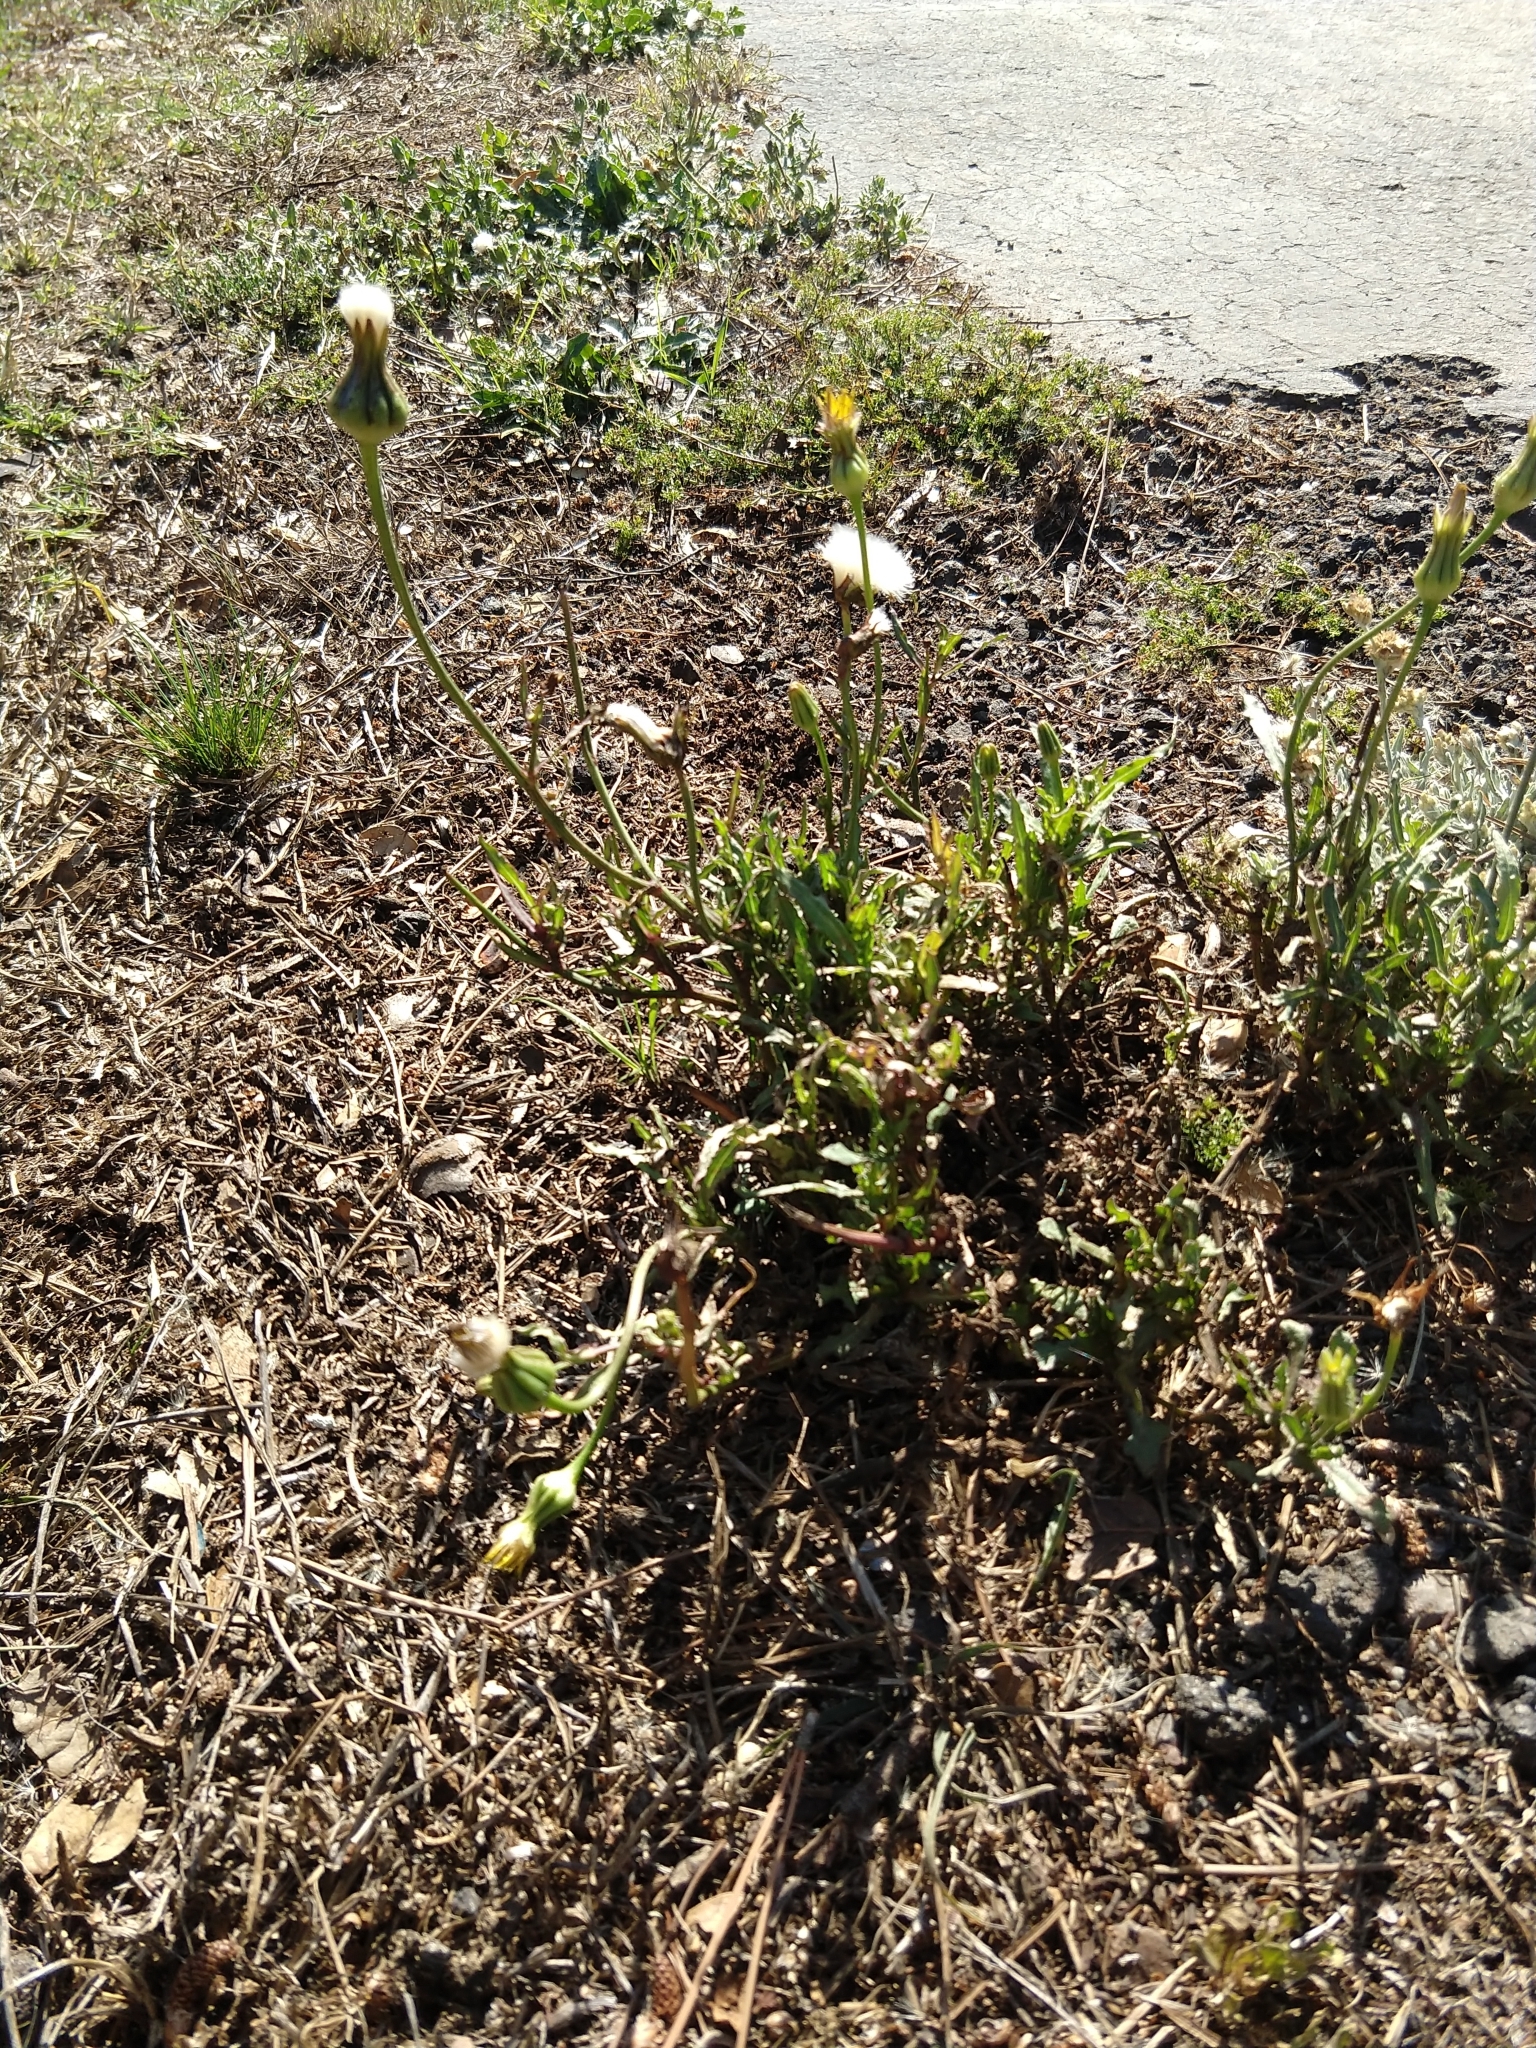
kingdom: Plantae
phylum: Tracheophyta
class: Magnoliopsida
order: Asterales
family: Asteraceae
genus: Urospermum
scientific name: Urospermum picroides
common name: False hawkbit
